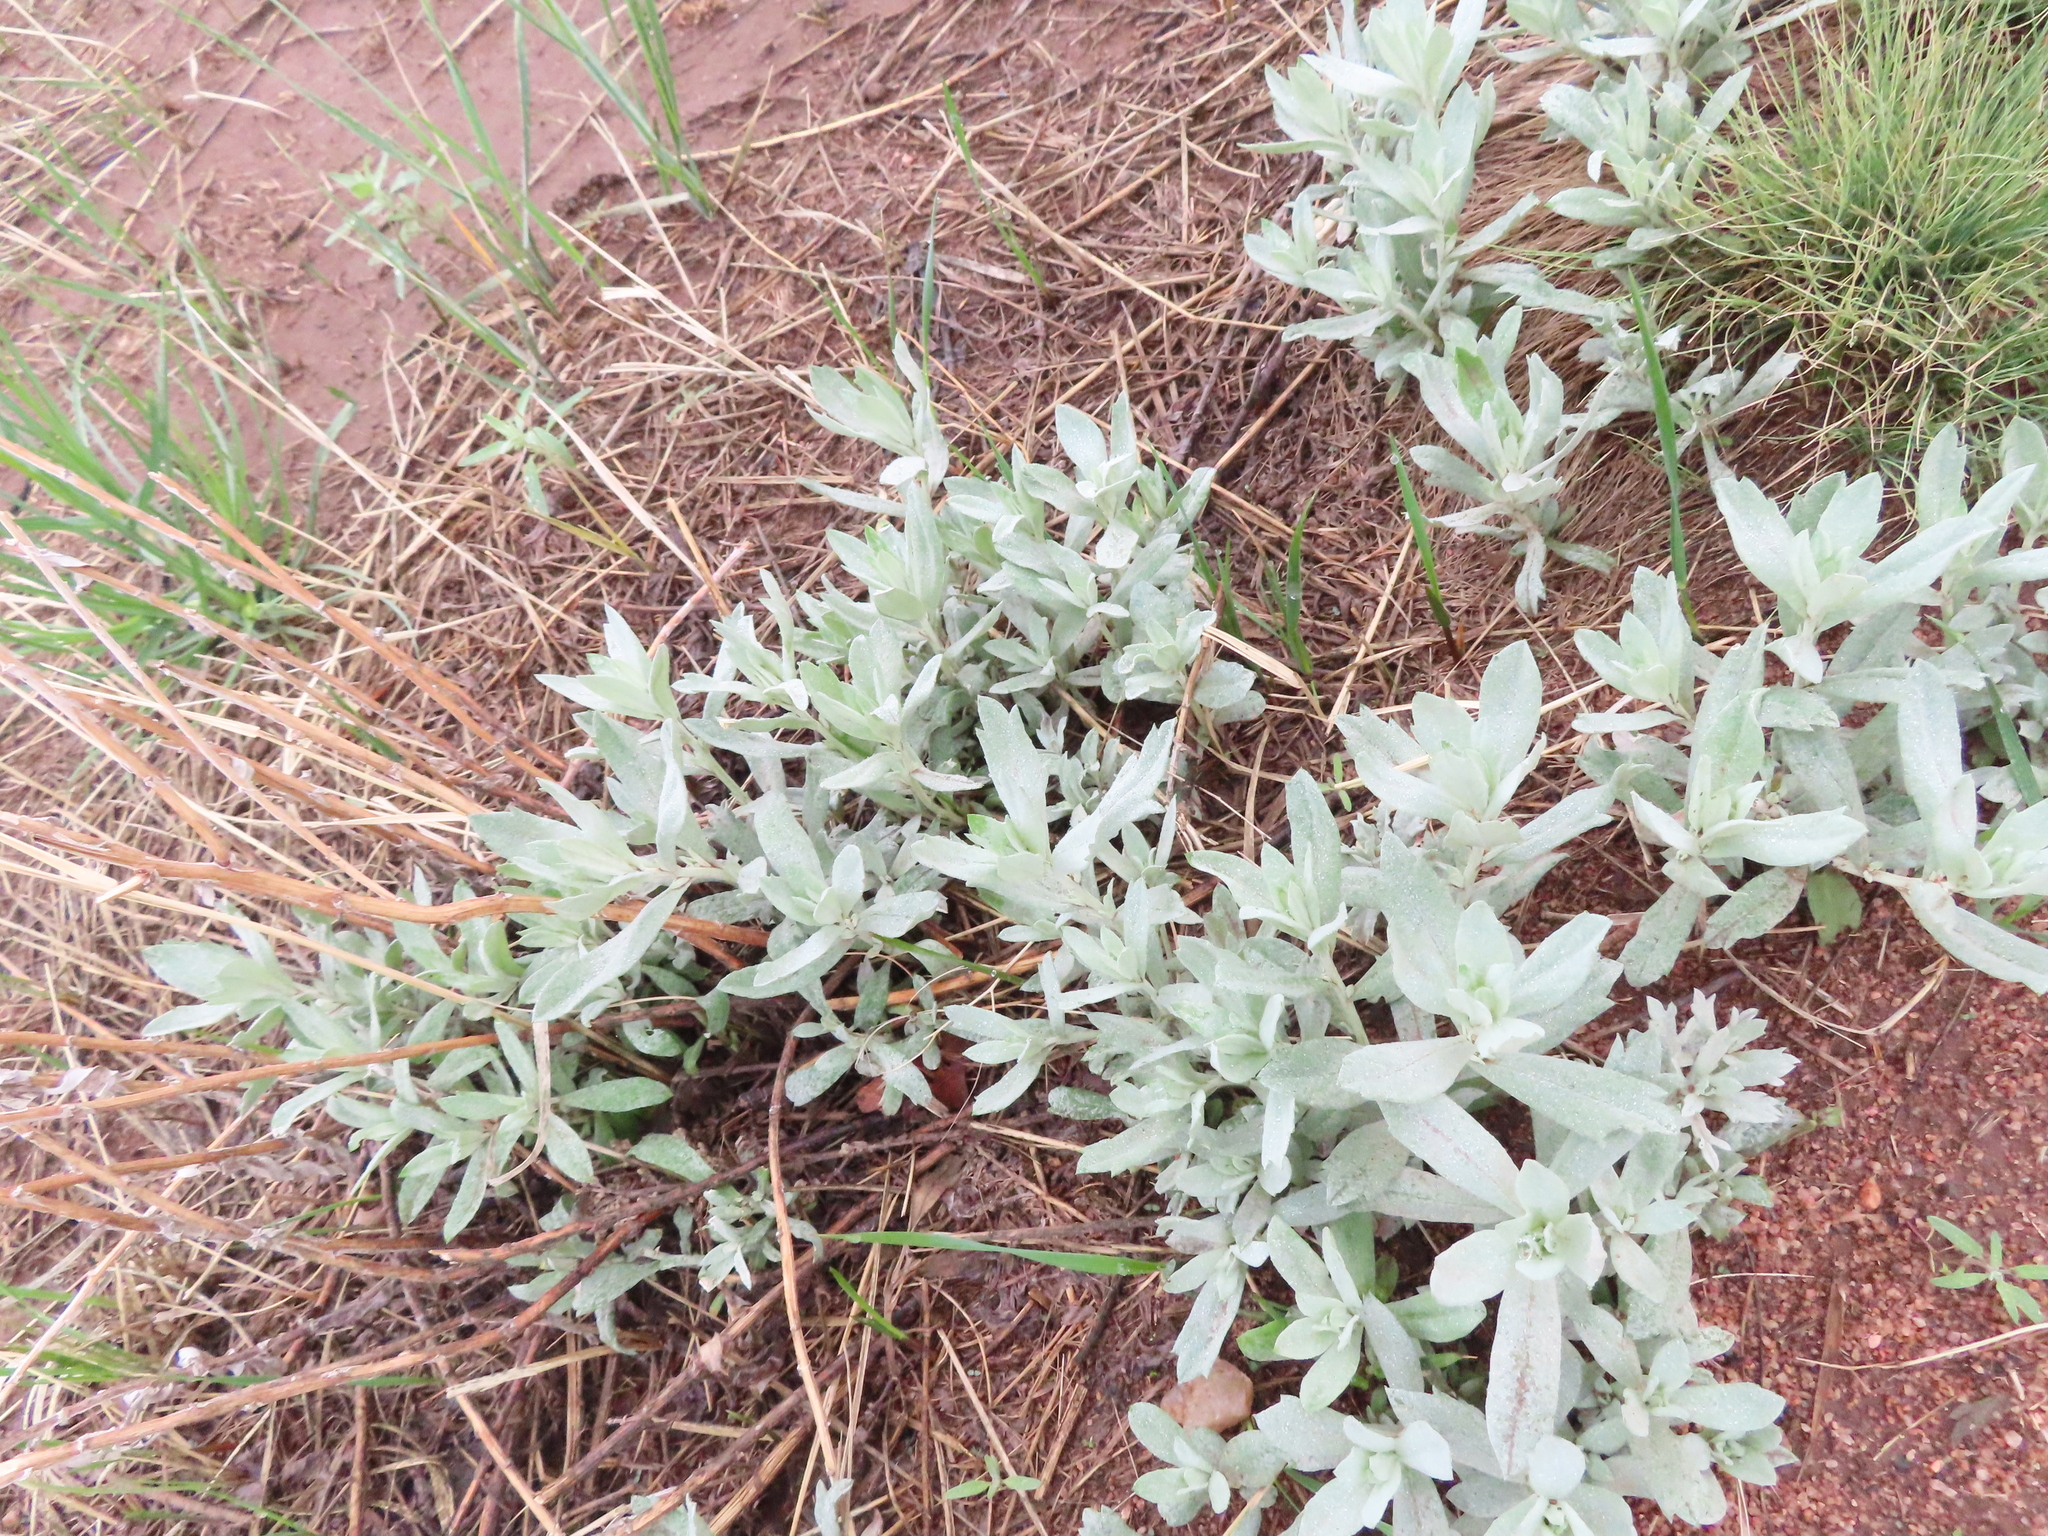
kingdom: Plantae
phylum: Tracheophyta
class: Magnoliopsida
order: Asterales
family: Asteraceae
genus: Artemisia
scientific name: Artemisia ludoviciana
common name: Western mugwort
